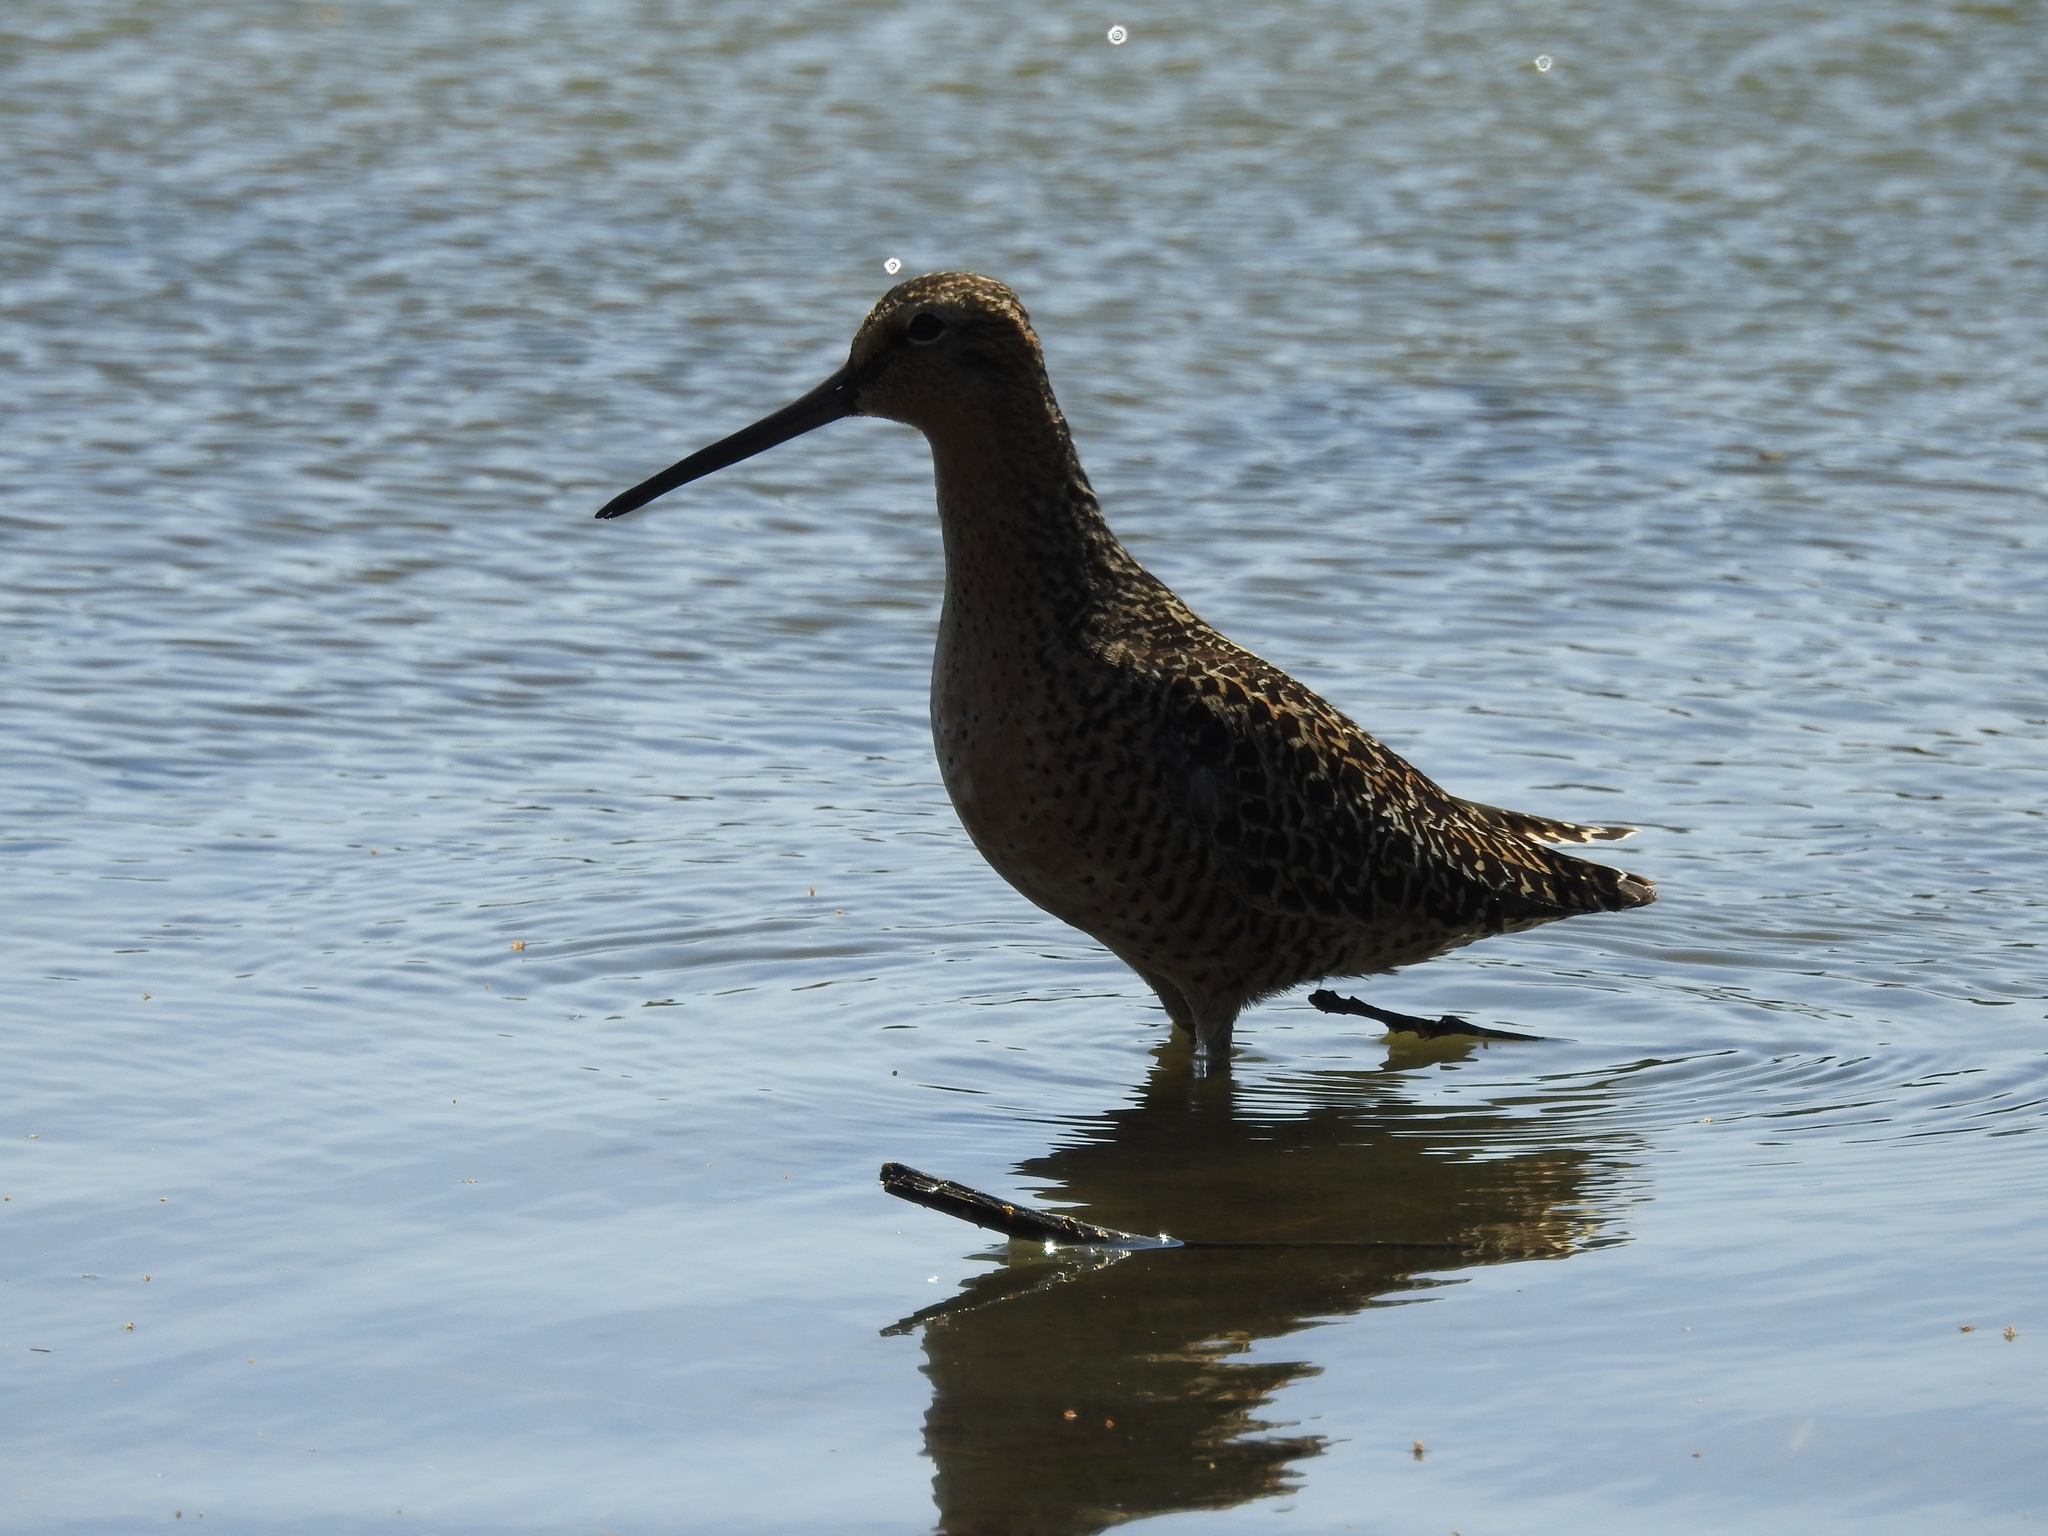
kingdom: Animalia
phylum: Chordata
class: Aves
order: Charadriiformes
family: Scolopacidae
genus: Limnodromus
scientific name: Limnodromus griseus
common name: Short-billed dowitcher
